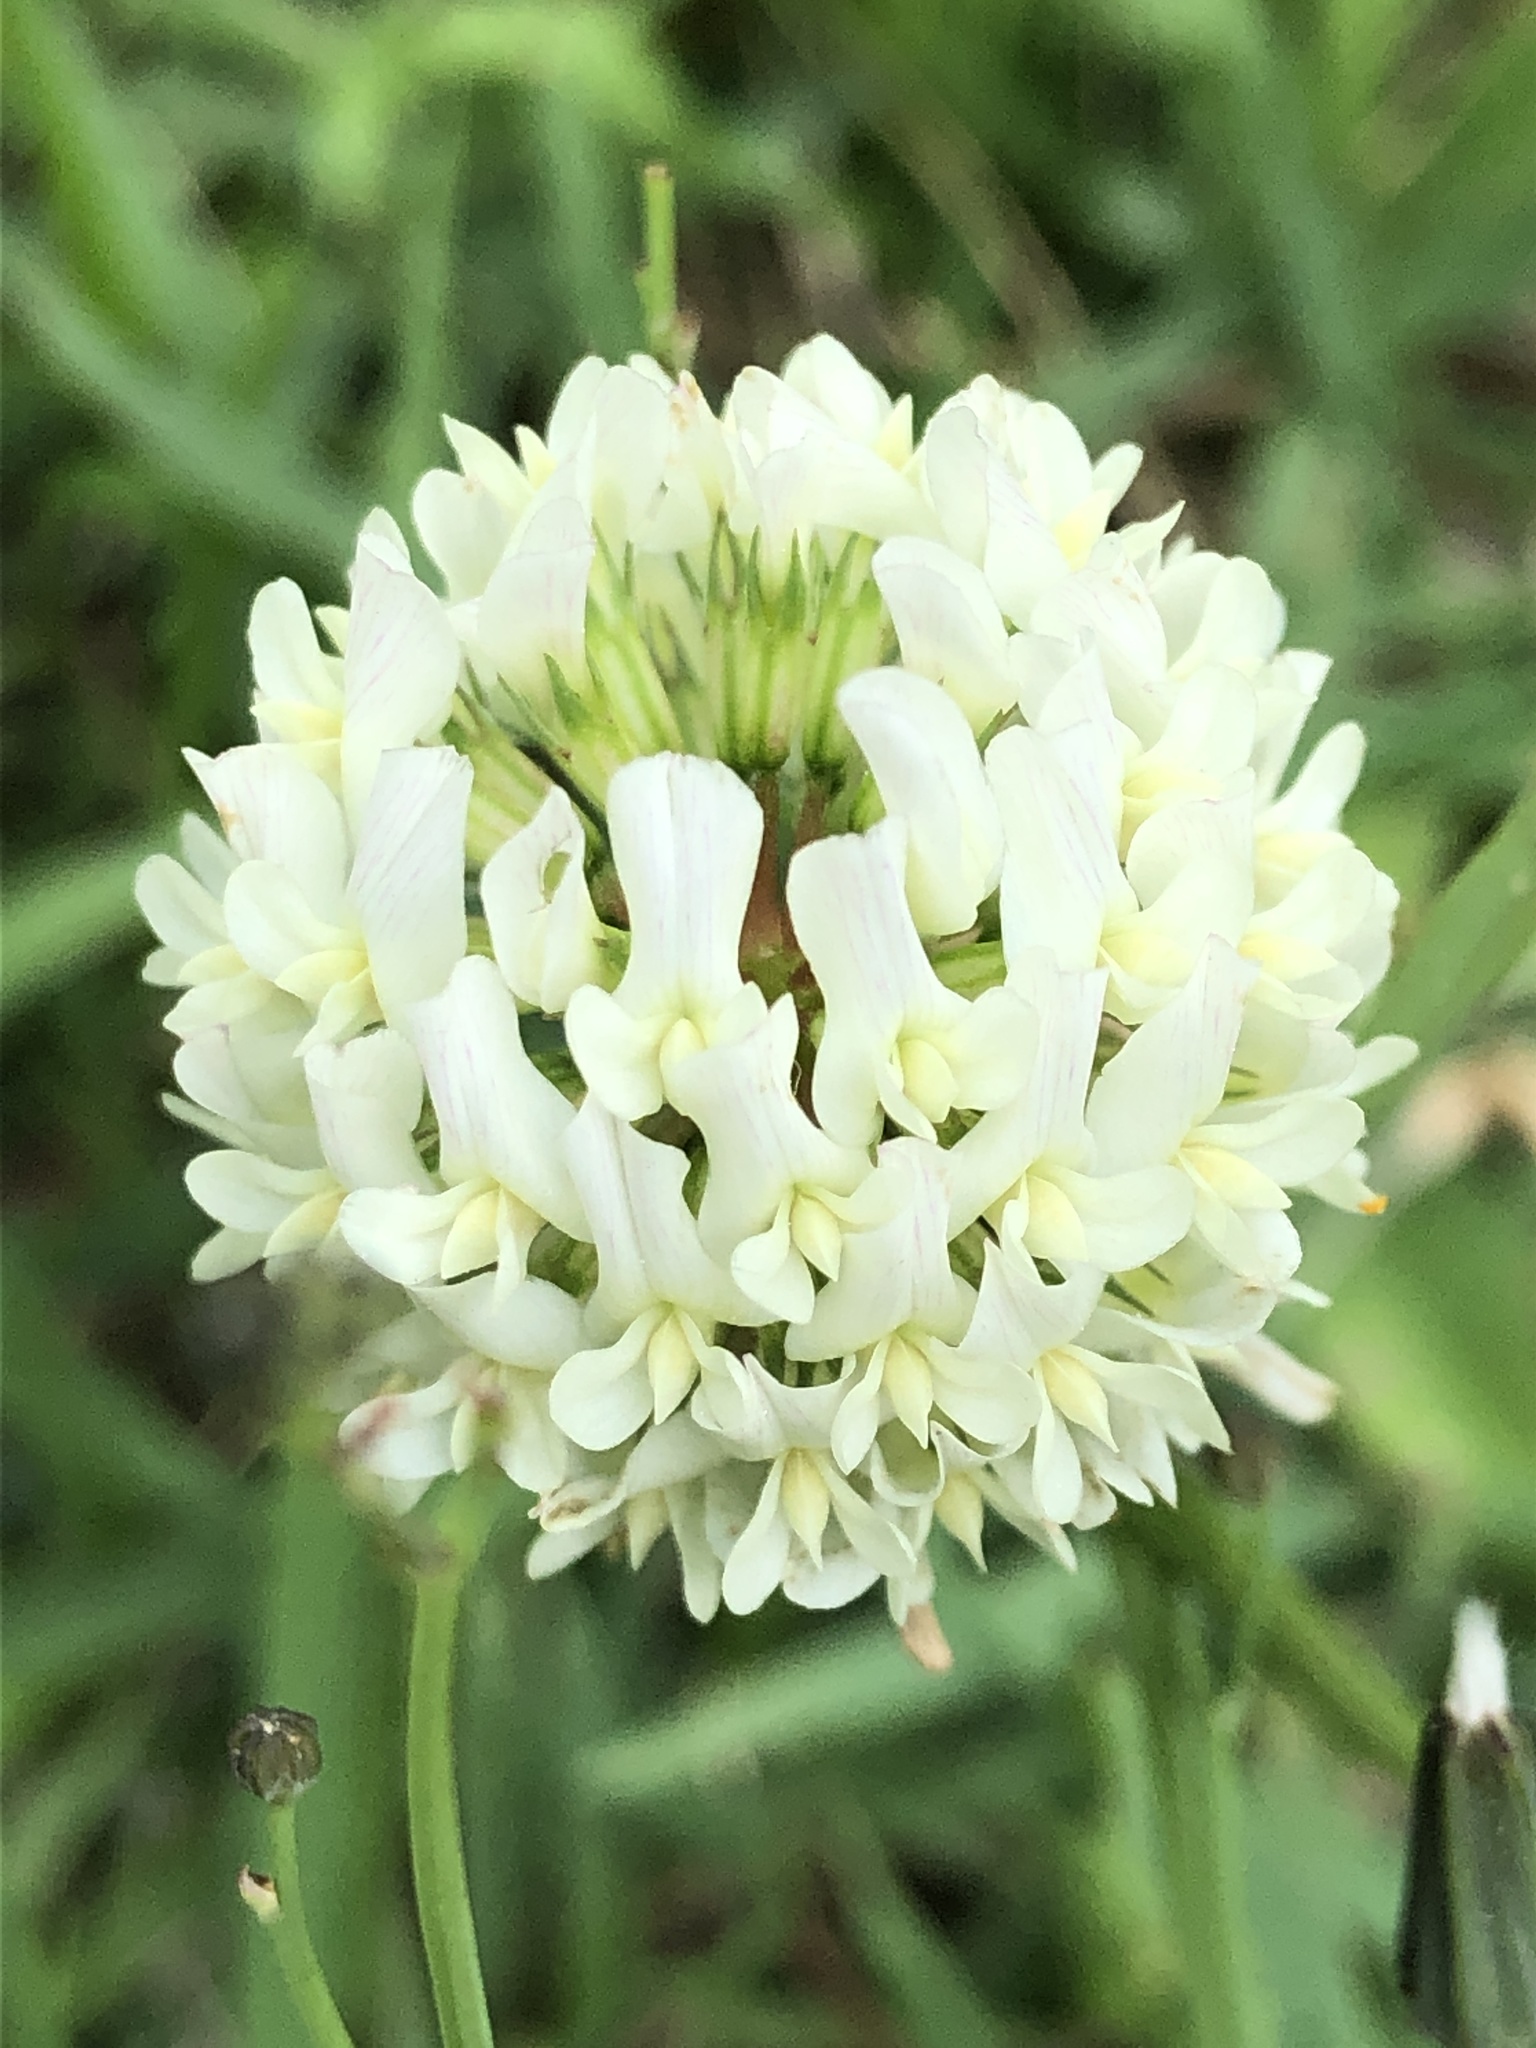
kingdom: Plantae
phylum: Tracheophyta
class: Magnoliopsida
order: Fabales
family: Fabaceae
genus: Trifolium
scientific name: Trifolium repens
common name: White clover
